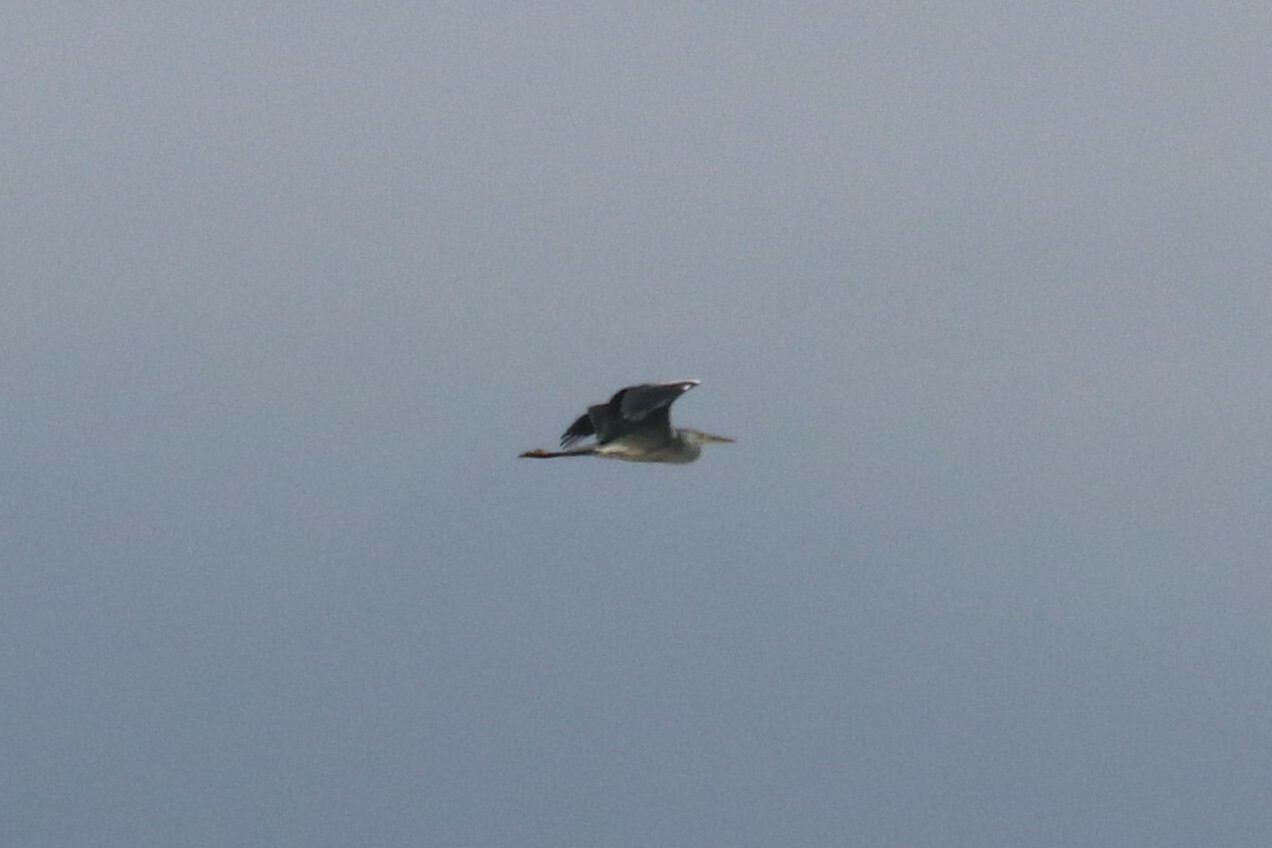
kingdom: Animalia
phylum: Chordata
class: Aves
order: Pelecaniformes
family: Ardeidae
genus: Ardea
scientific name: Ardea cinerea
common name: Grey heron
